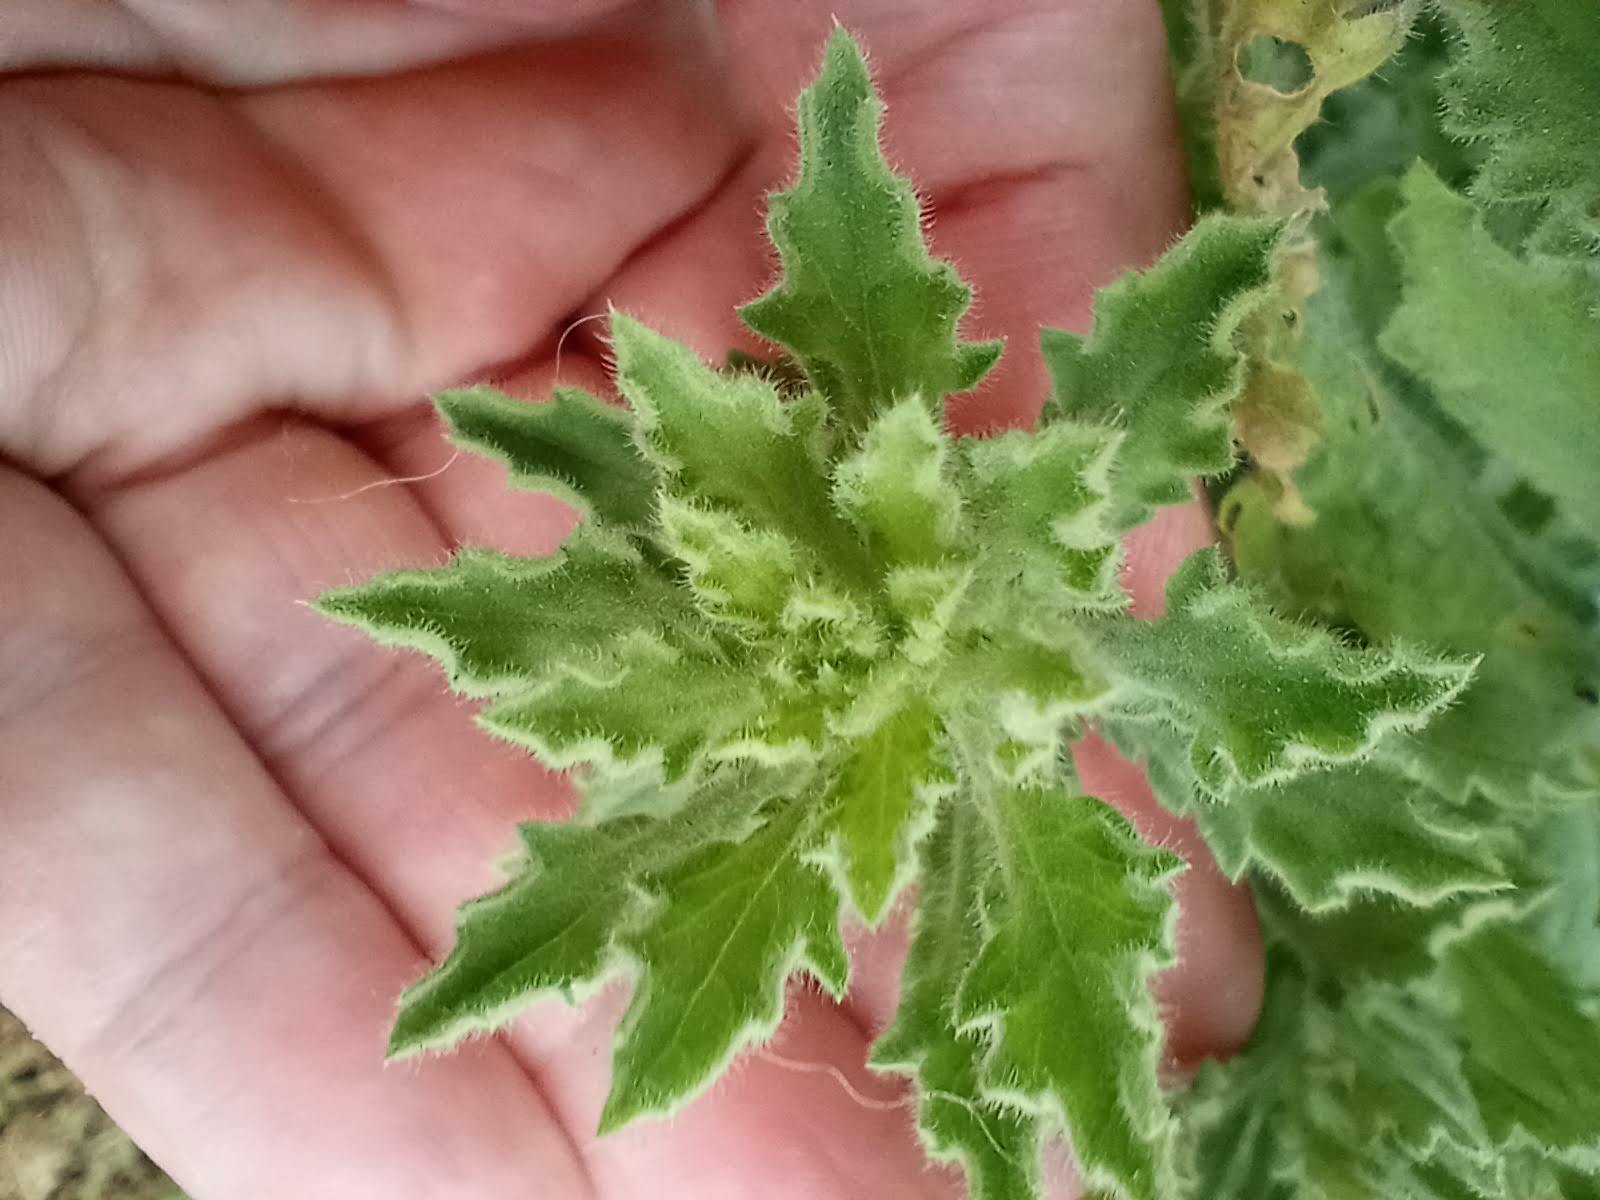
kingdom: Plantae
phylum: Tracheophyta
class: Magnoliopsida
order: Asterales
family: Asteraceae
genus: Laennecia
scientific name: Laennecia coulteri
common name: Coulter's woolwort
